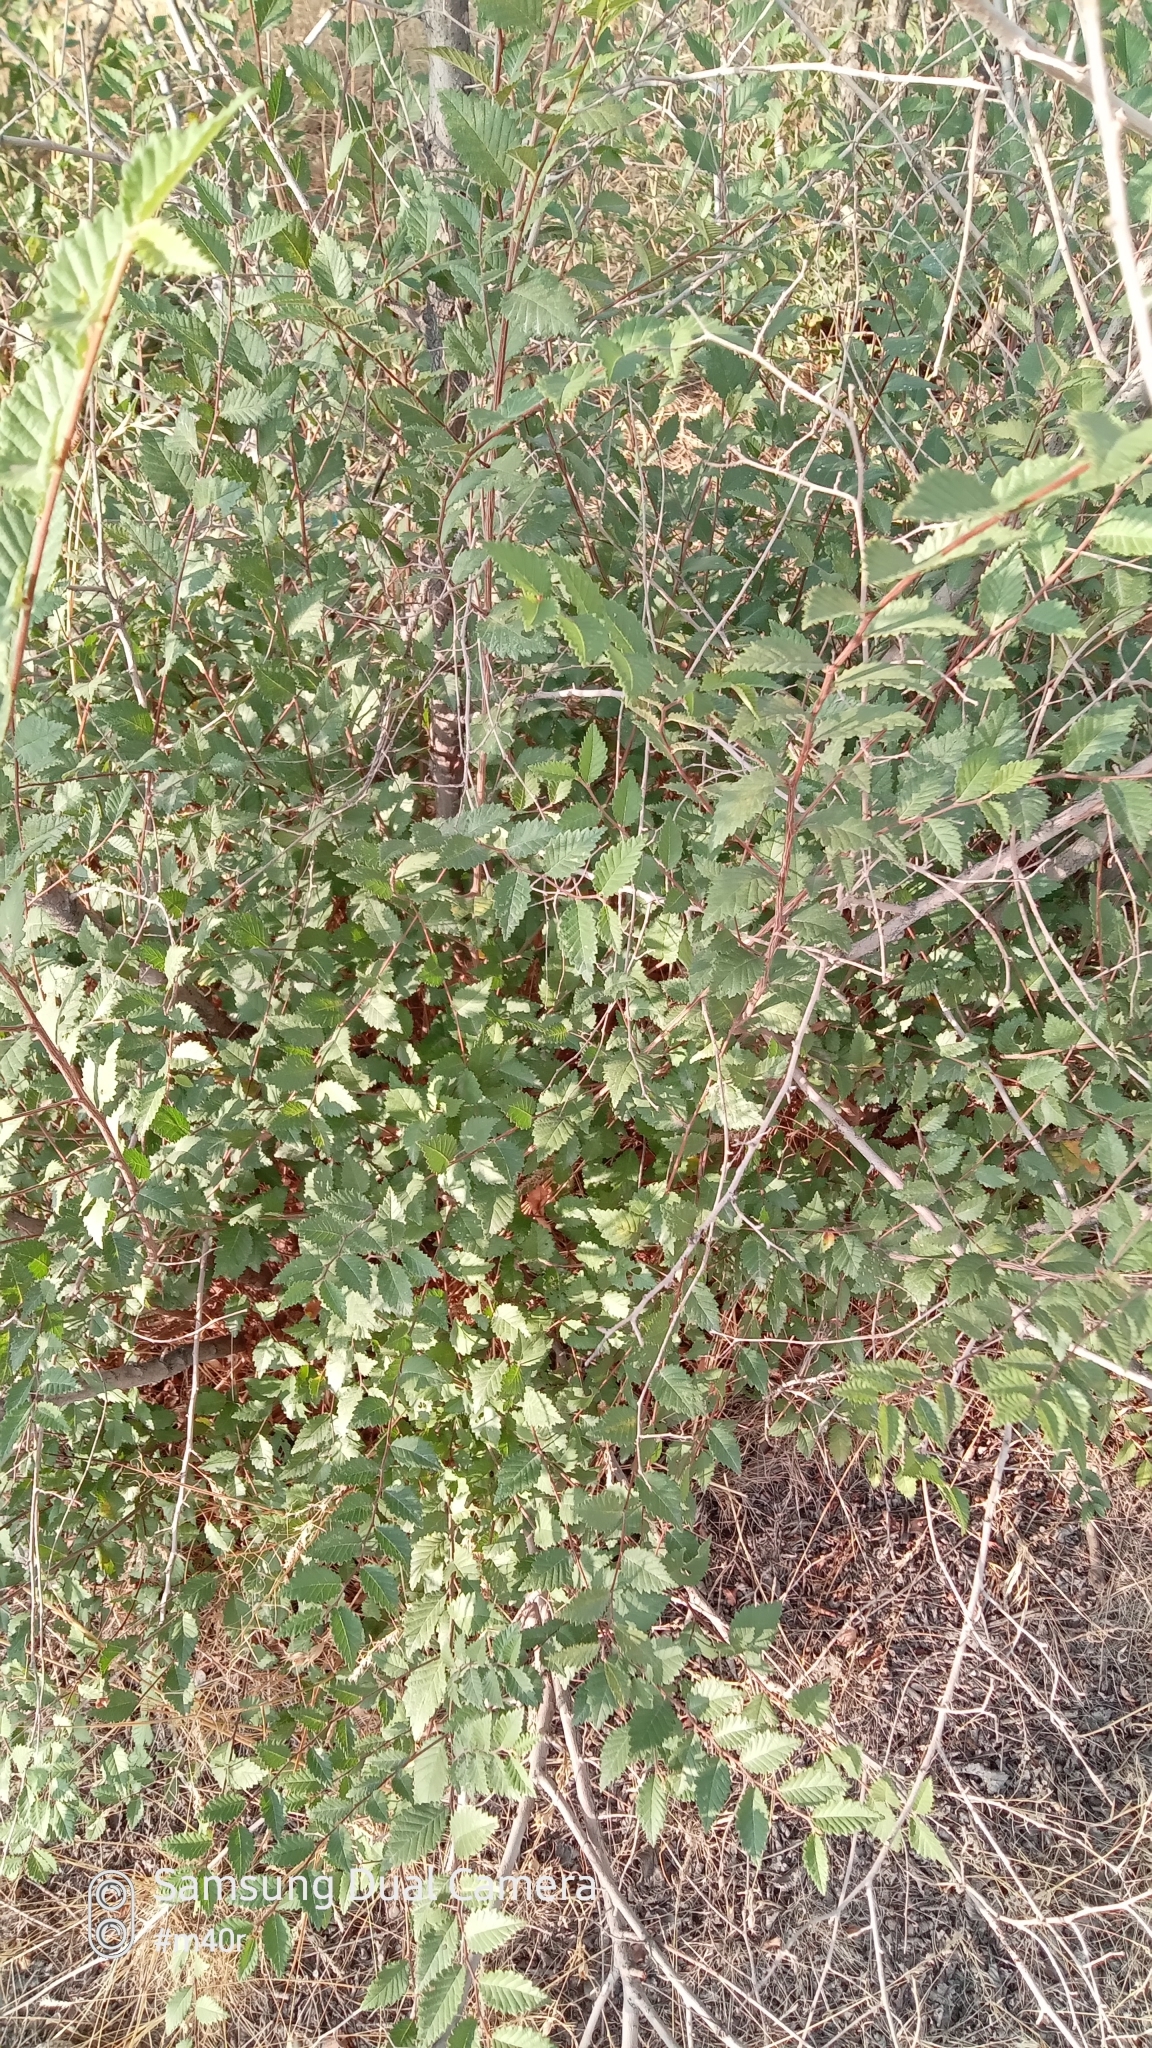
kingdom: Plantae
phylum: Tracheophyta
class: Magnoliopsida
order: Rosales
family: Ulmaceae
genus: Ulmus
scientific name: Ulmus pumila
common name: Siberian elm
